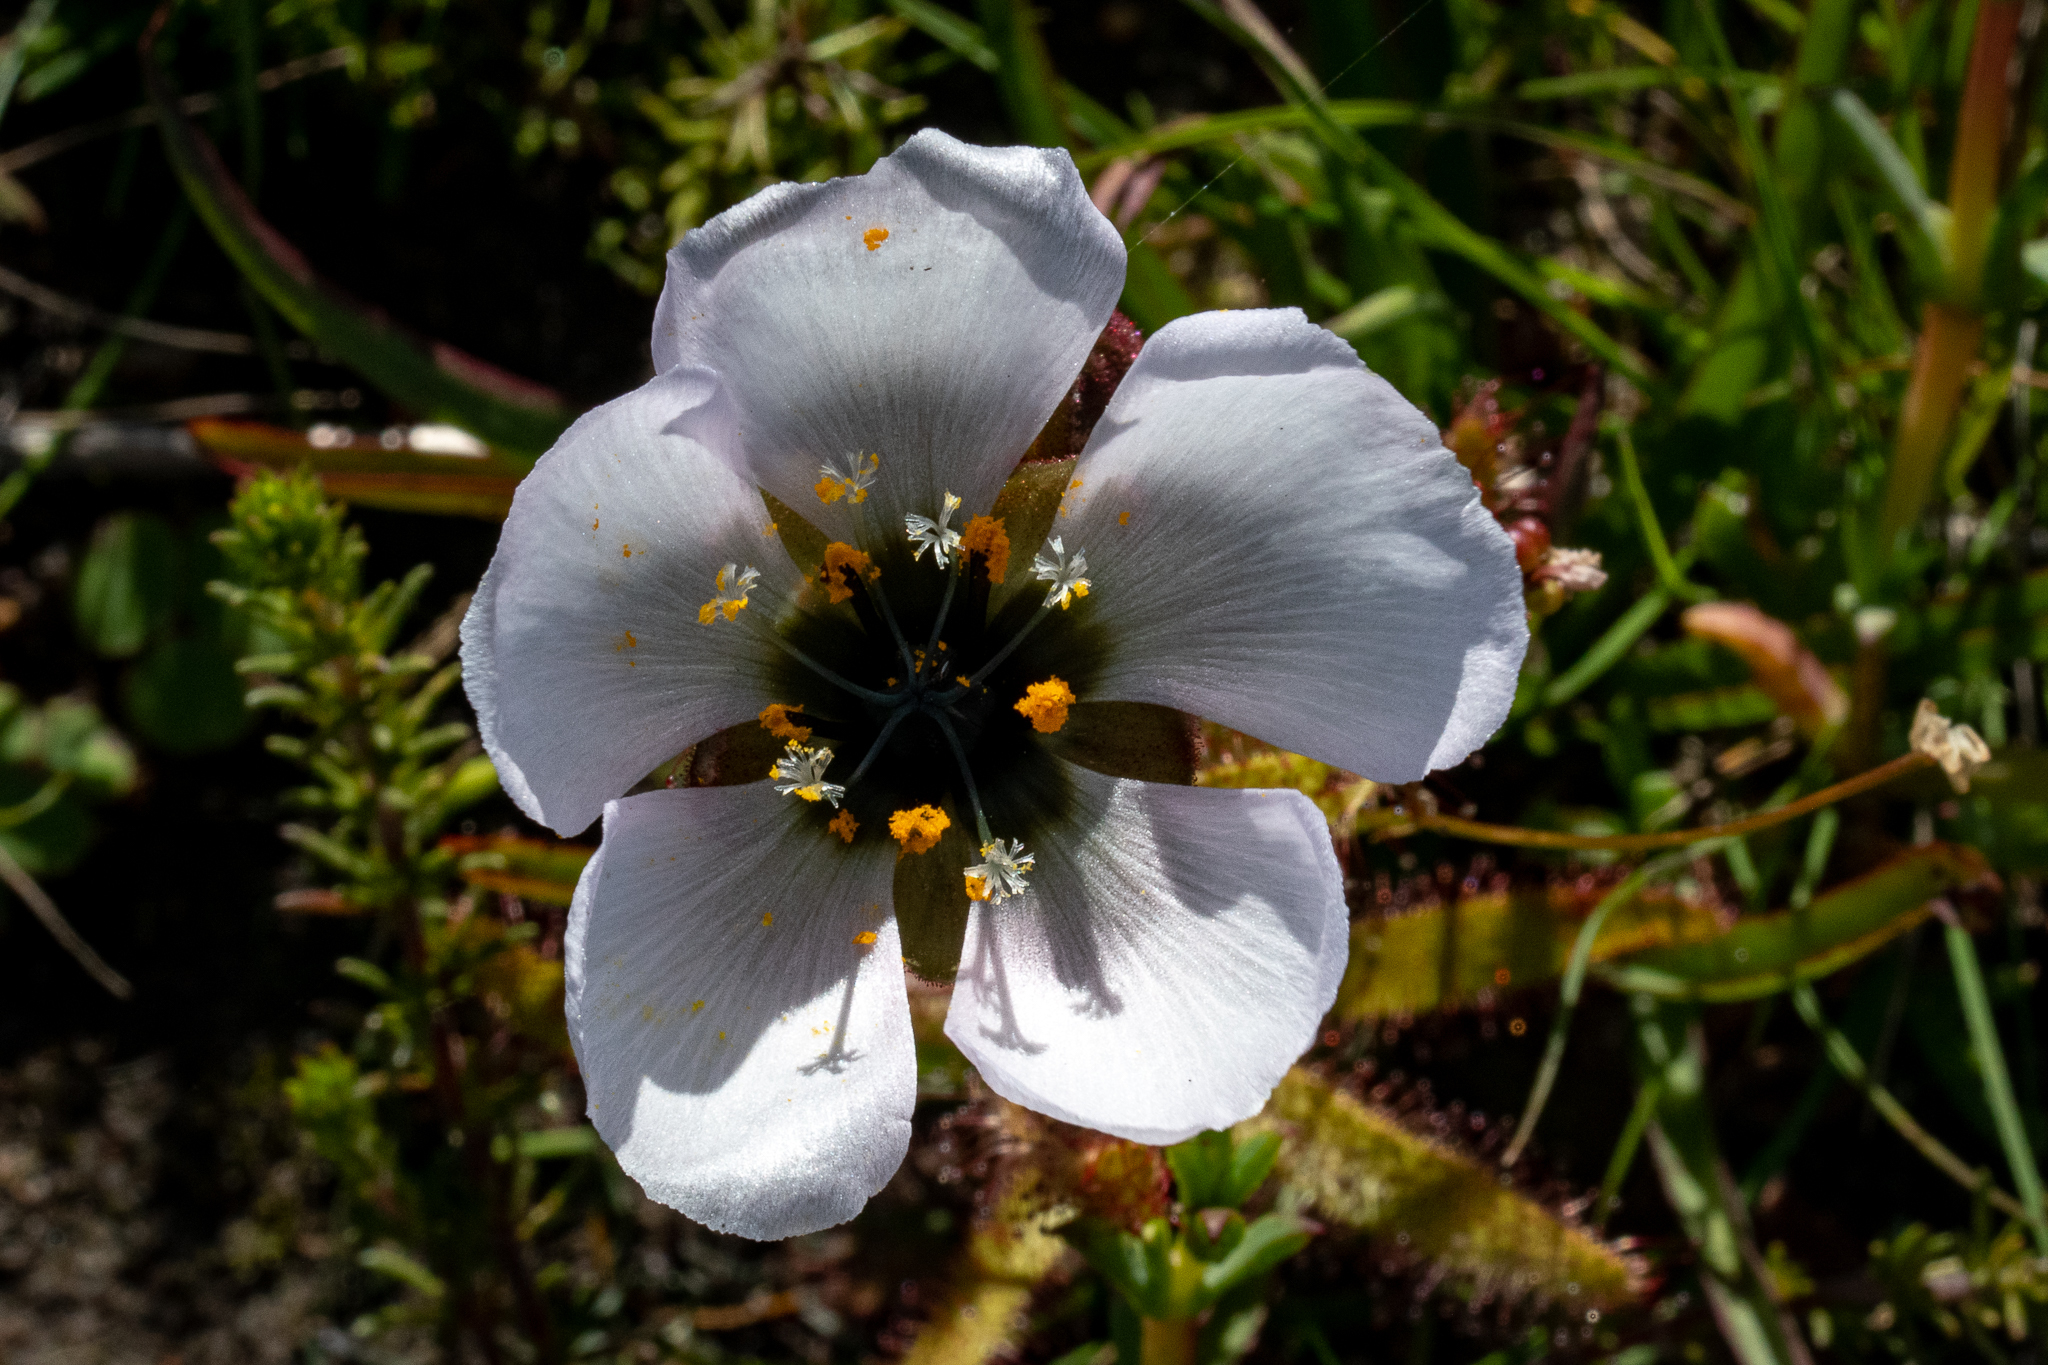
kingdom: Plantae
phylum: Tracheophyta
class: Magnoliopsida
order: Caryophyllales
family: Droseraceae
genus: Drosera
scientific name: Drosera cistiflora
